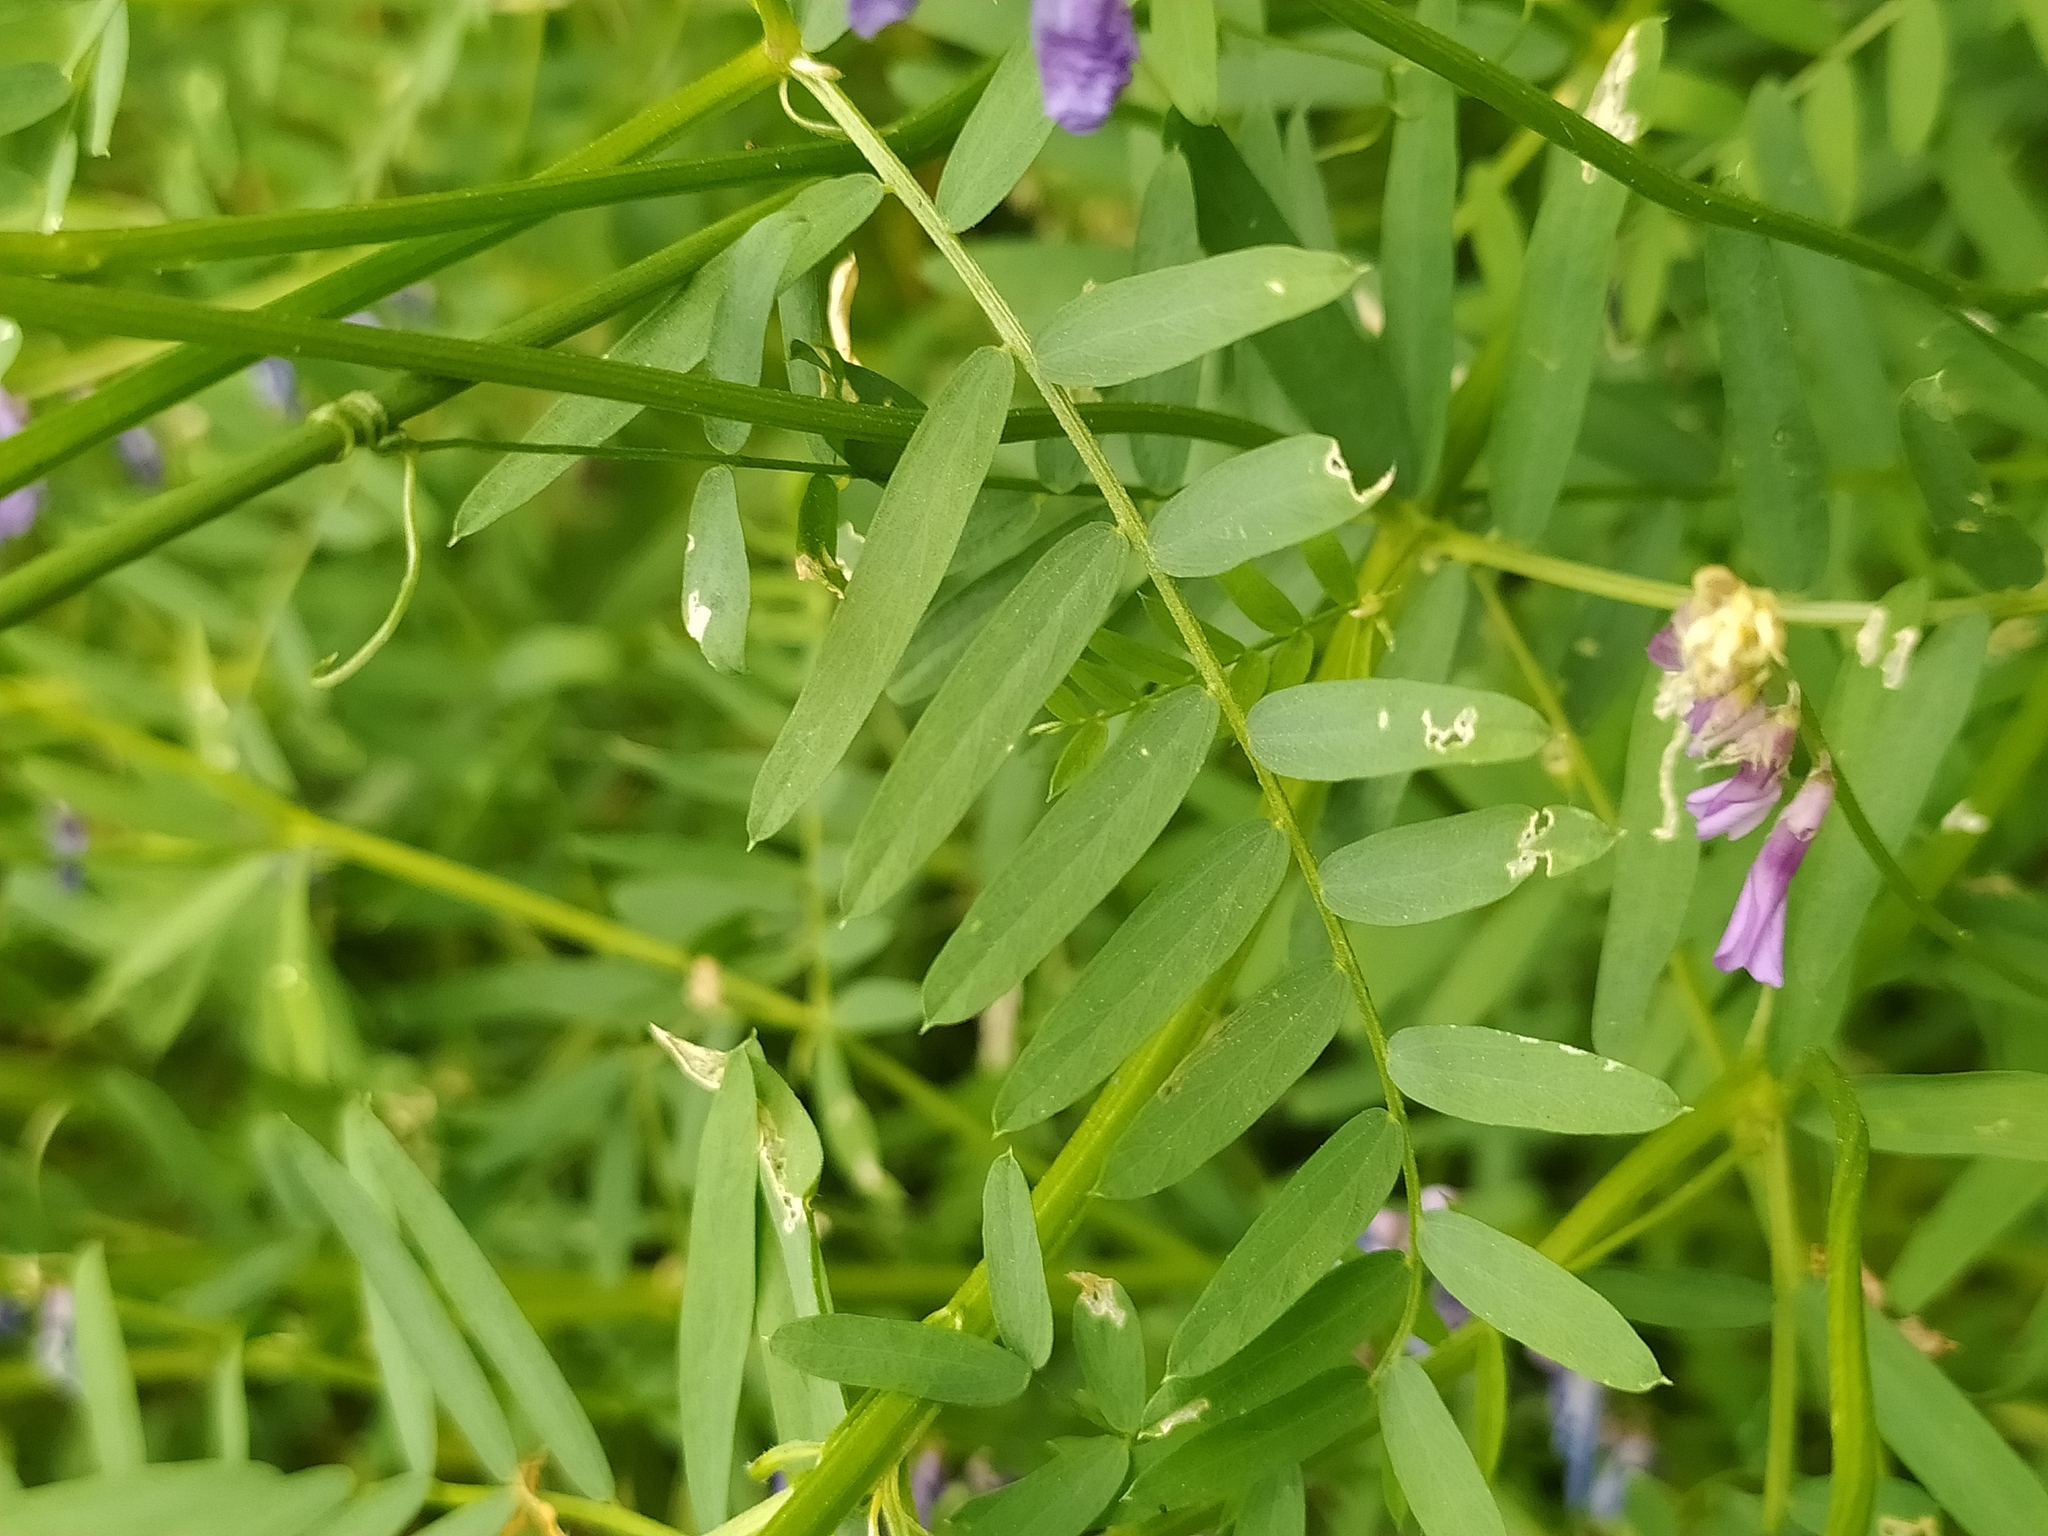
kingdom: Plantae
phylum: Tracheophyta
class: Magnoliopsida
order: Fabales
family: Fabaceae
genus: Vicia
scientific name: Vicia tenuifolia
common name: Fine-leaved vetch
